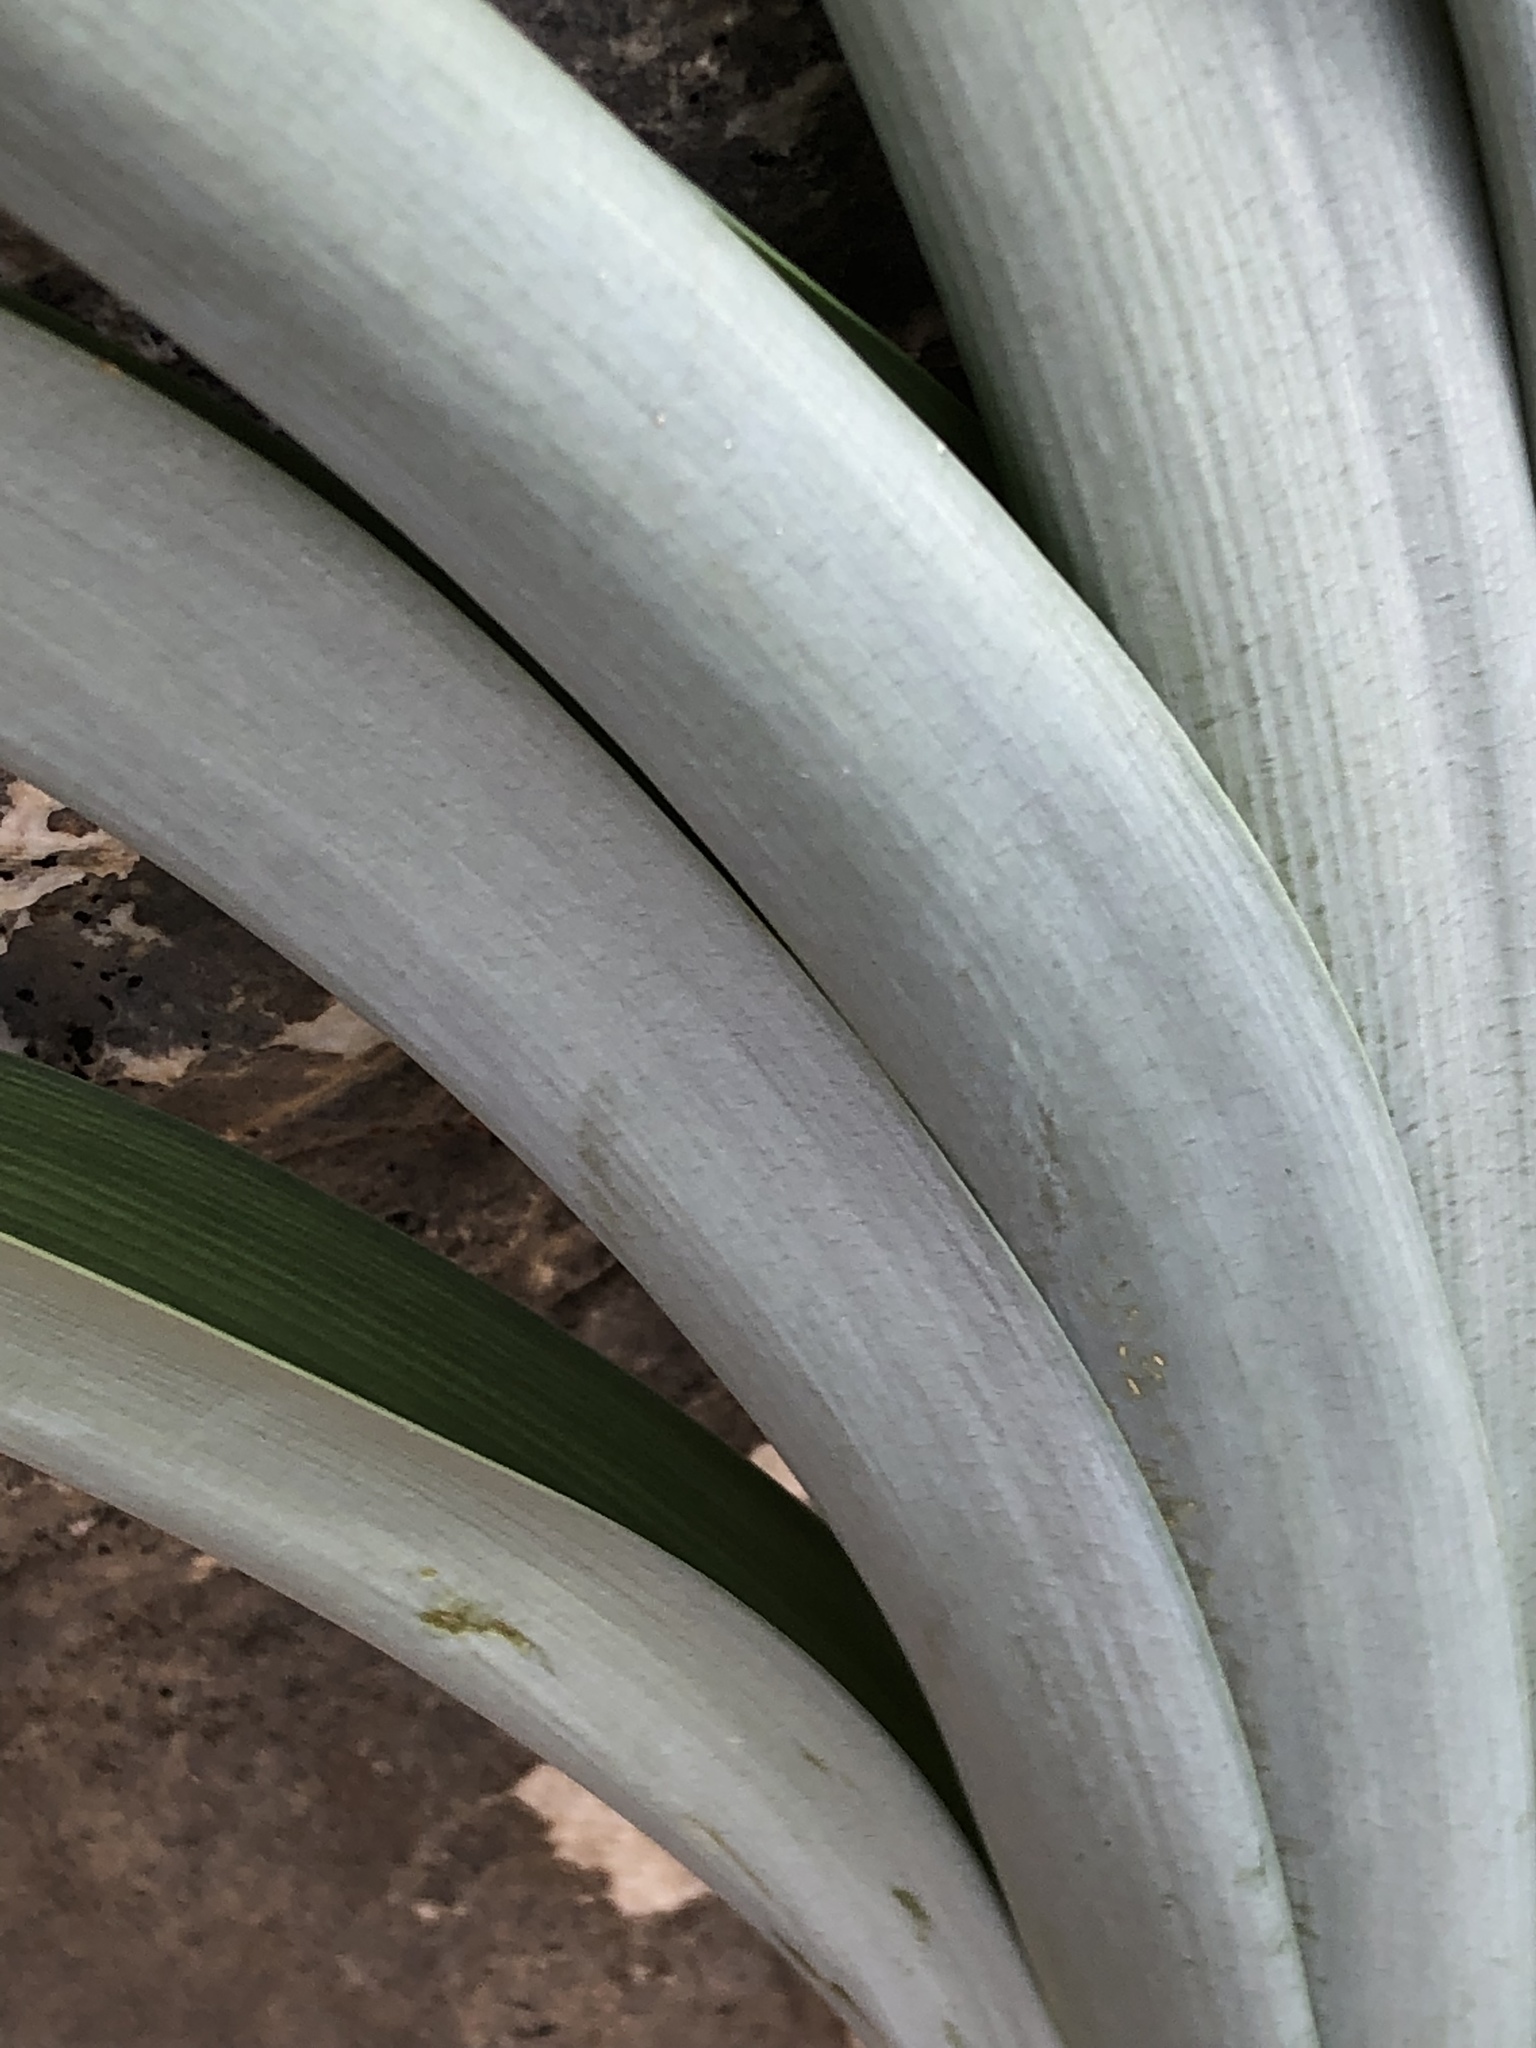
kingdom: Plantae
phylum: Tracheophyta
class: Liliopsida
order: Asparagales
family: Asparagaceae
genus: Albuca
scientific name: Albuca pulchra
